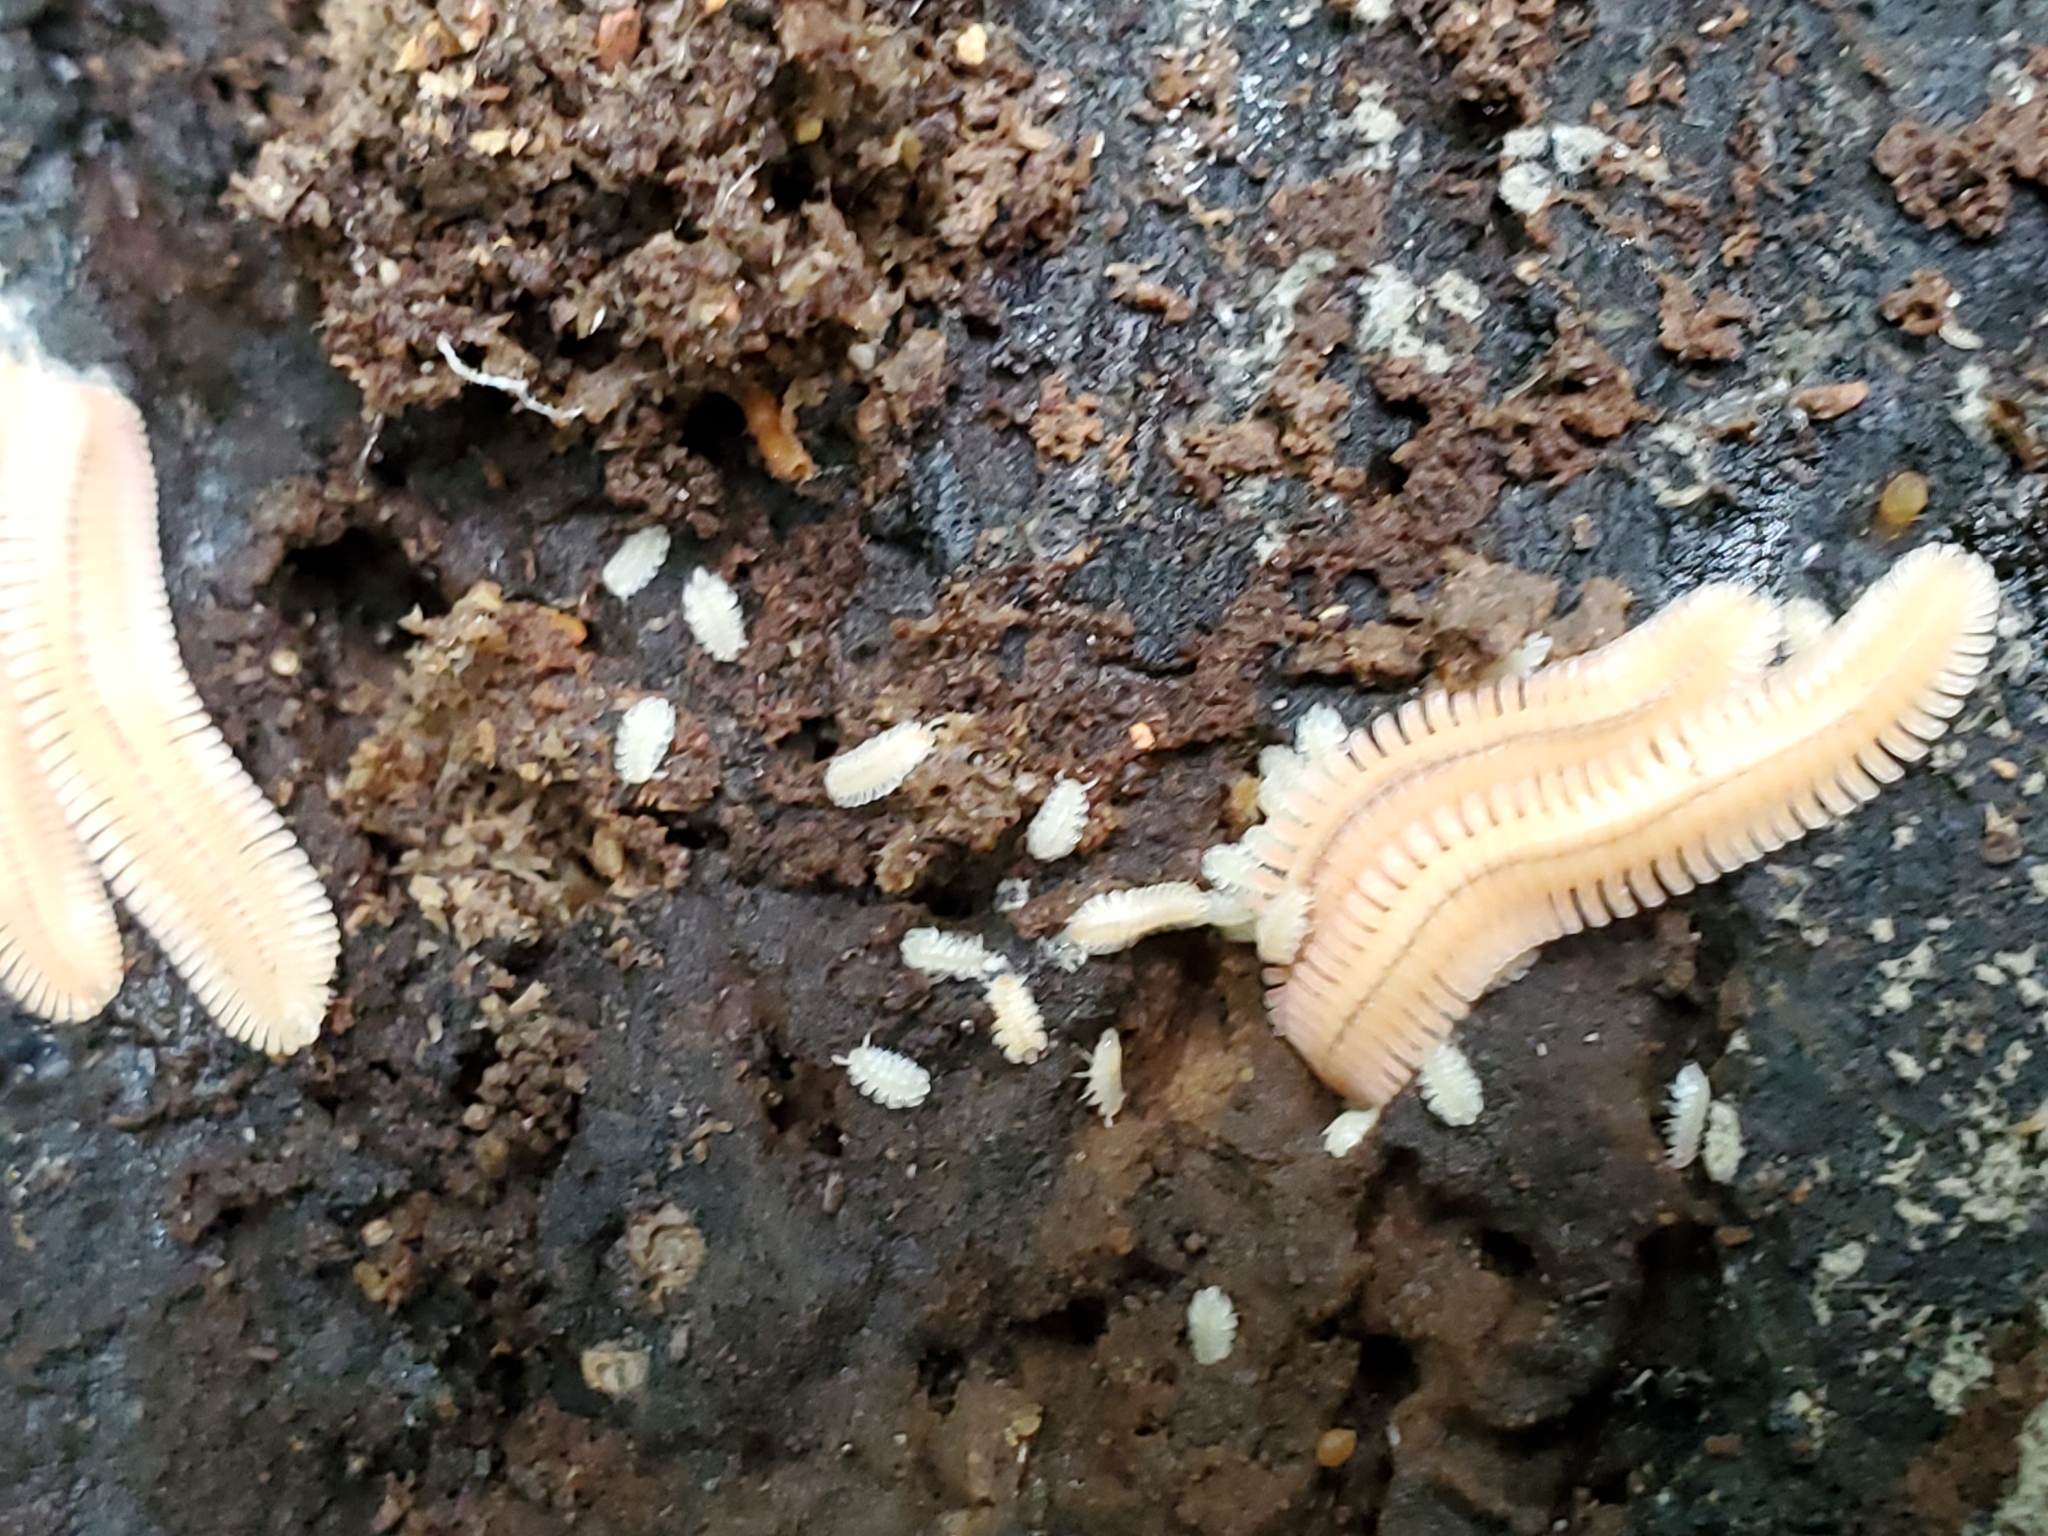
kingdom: Animalia
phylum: Arthropoda
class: Diplopoda
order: Platydesmida
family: Andrognathidae
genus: Brachycybe
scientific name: Brachycybe lecontii
